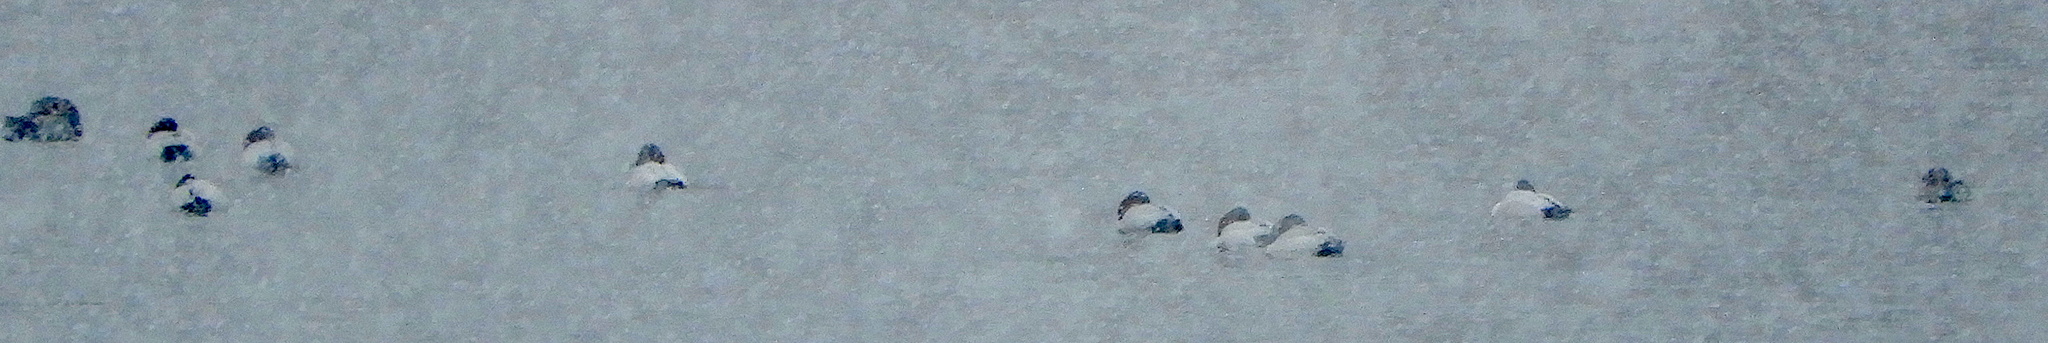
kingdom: Animalia
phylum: Chordata
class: Aves
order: Anseriformes
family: Anatidae
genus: Aythya
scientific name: Aythya valisineria
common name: Canvasback
